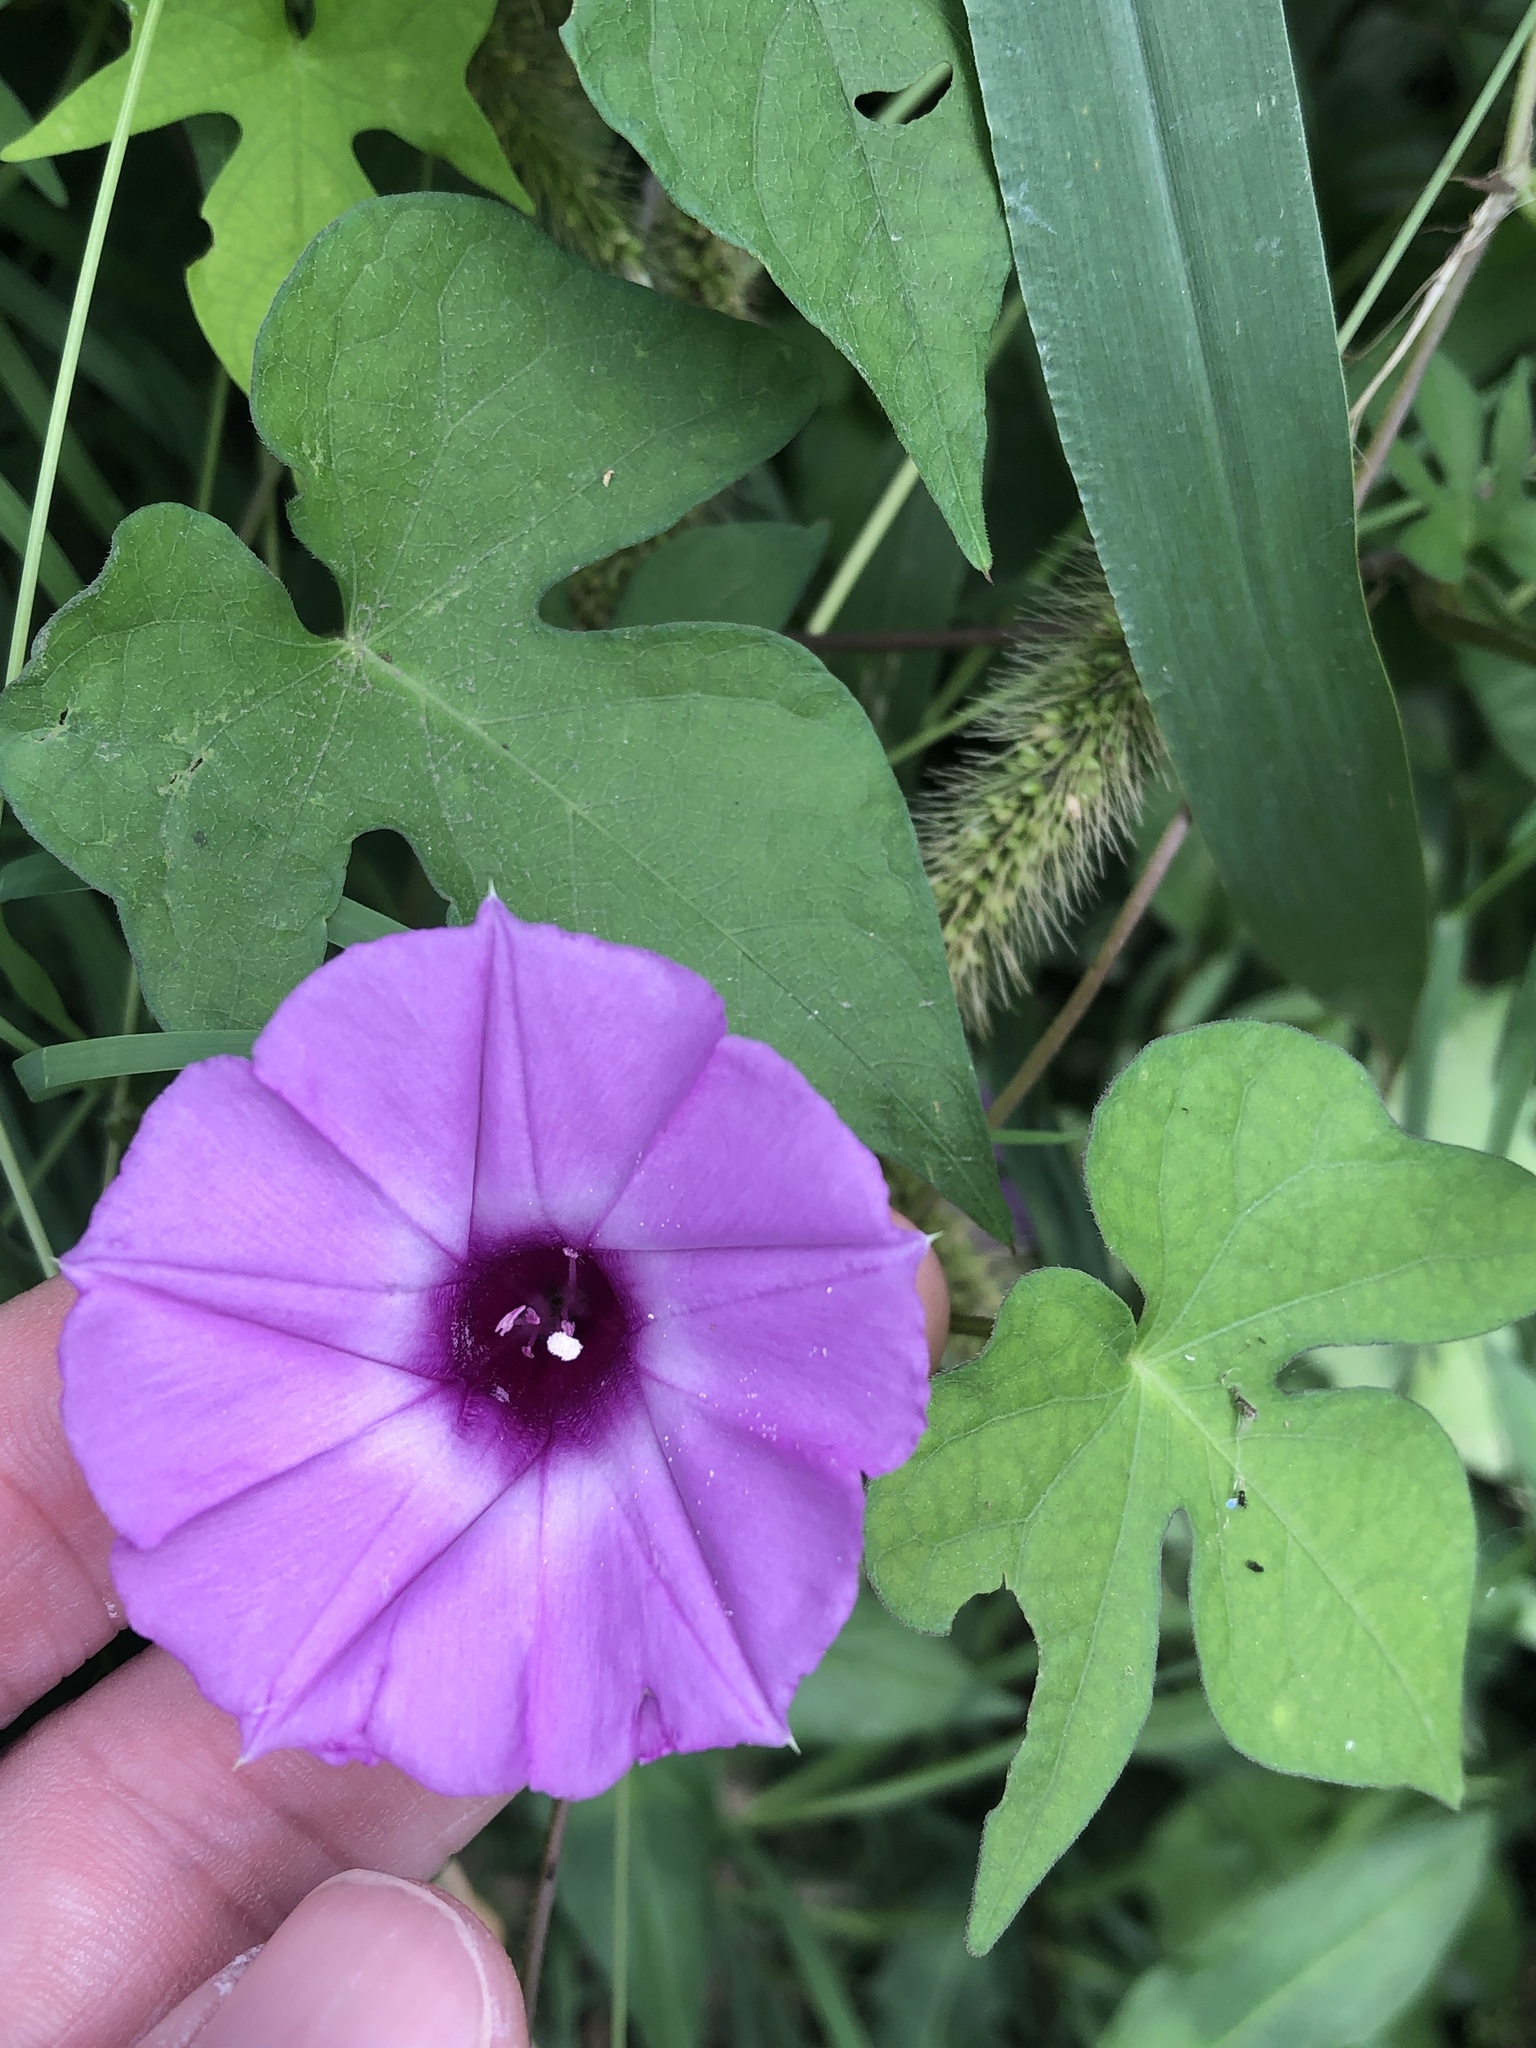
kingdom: Plantae
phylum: Tracheophyta
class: Magnoliopsida
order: Solanales
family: Convolvulaceae
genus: Ipomoea
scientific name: Ipomoea cordatotriloba
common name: Cotton morning glory
